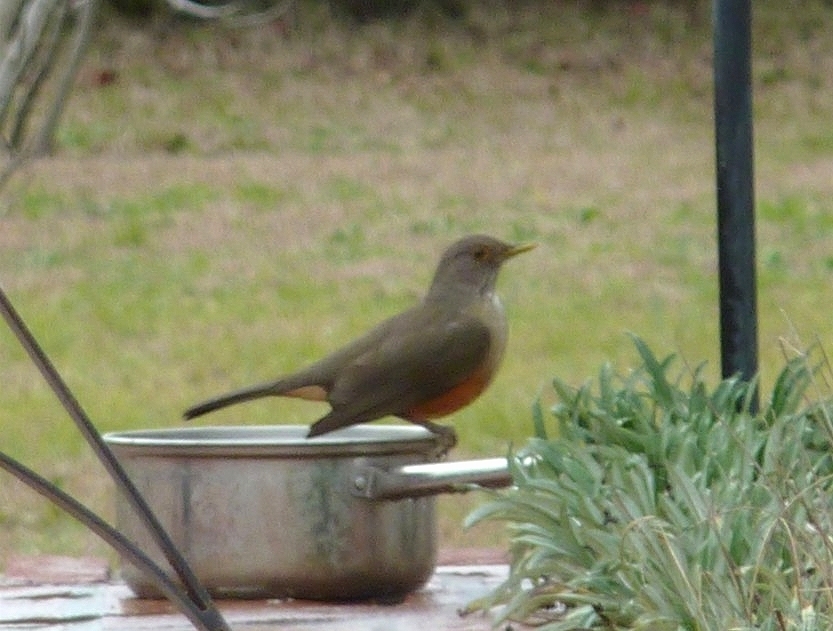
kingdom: Animalia
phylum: Chordata
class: Aves
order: Passeriformes
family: Turdidae
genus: Turdus
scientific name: Turdus rufiventris
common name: Rufous-bellied thrush
